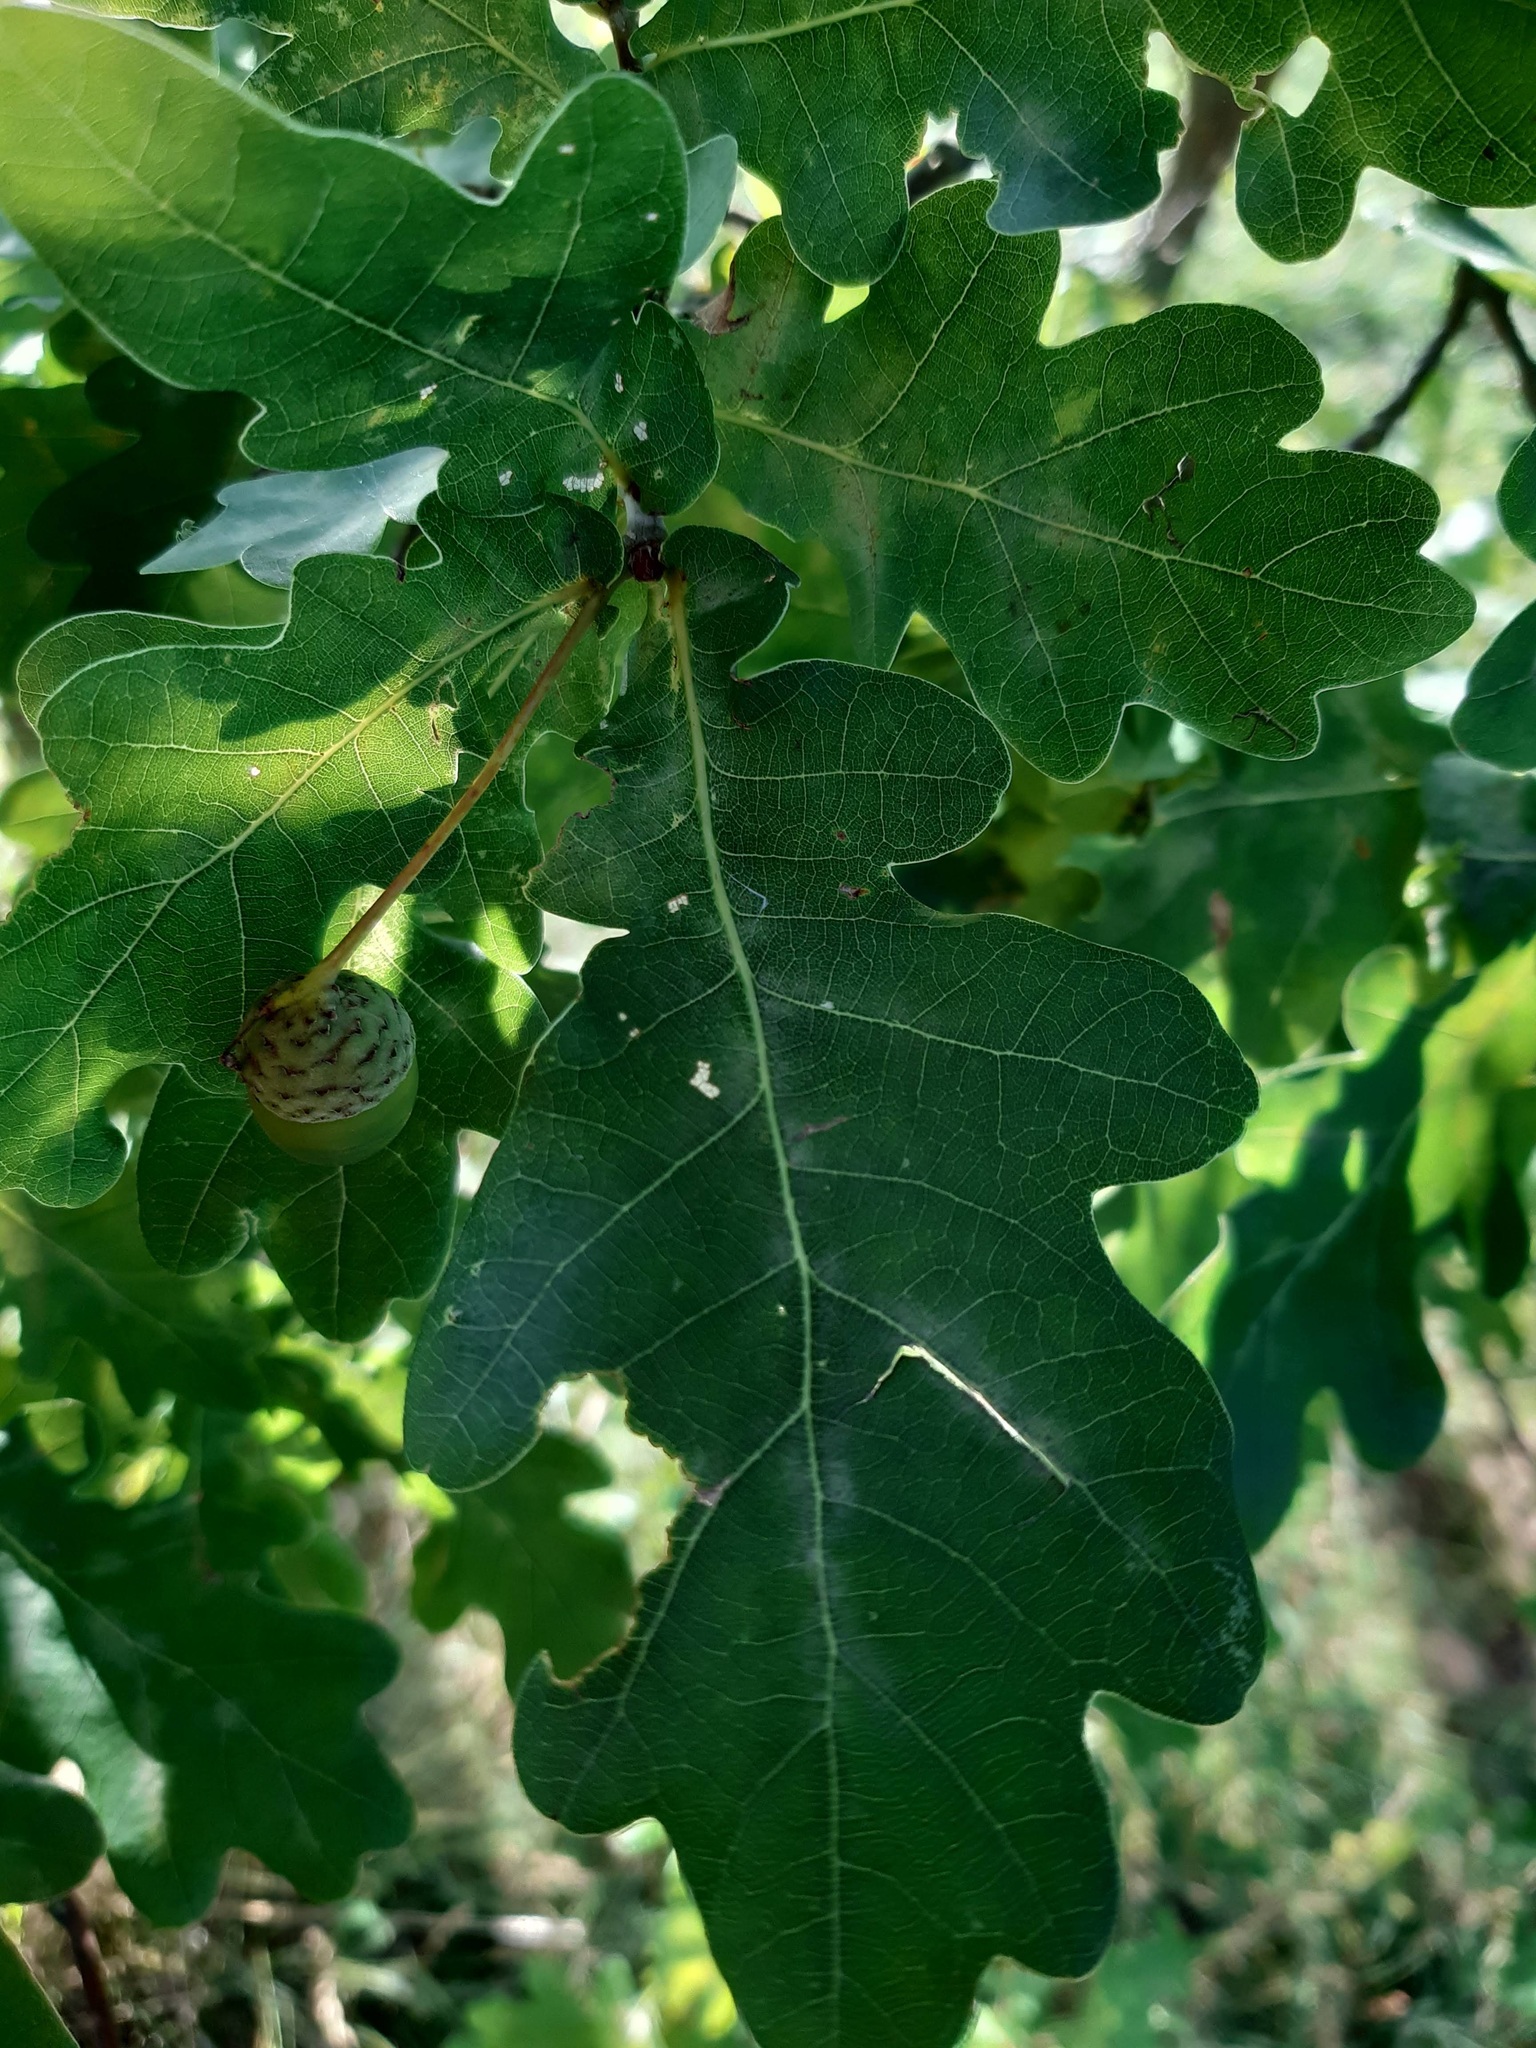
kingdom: Plantae
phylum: Tracheophyta
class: Magnoliopsida
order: Fagales
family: Fagaceae
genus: Quercus
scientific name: Quercus robur
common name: Pedunculate oak
